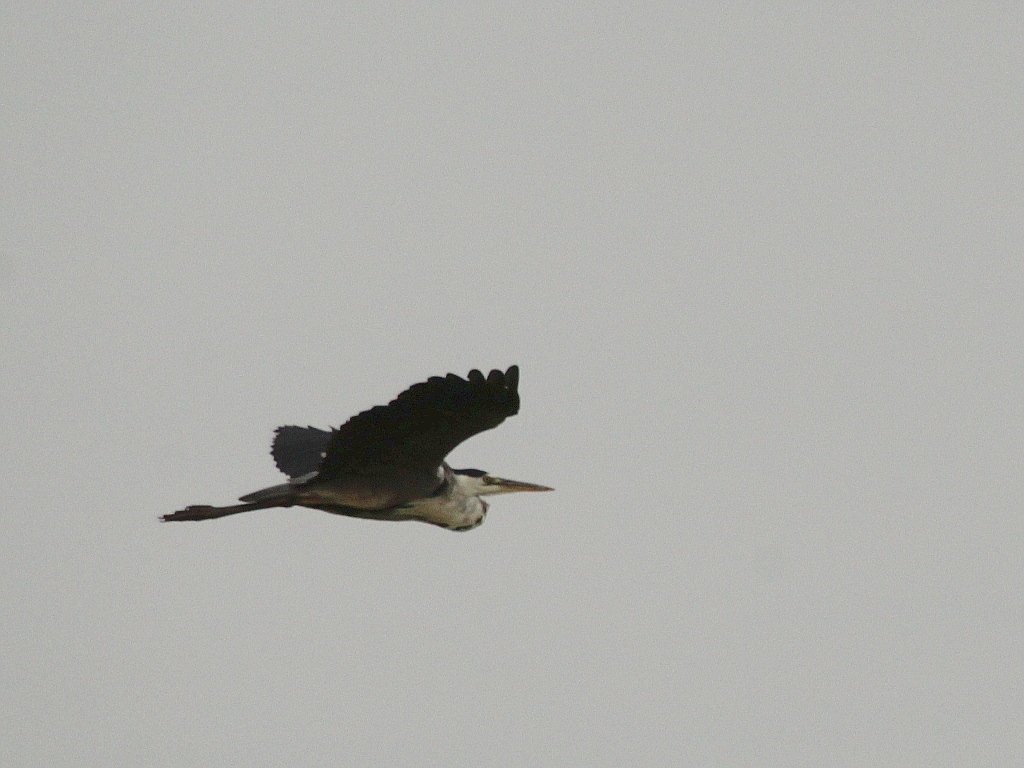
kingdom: Animalia
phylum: Chordata
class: Aves
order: Pelecaniformes
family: Ardeidae
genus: Ardea
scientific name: Ardea cinerea
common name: Grey heron
